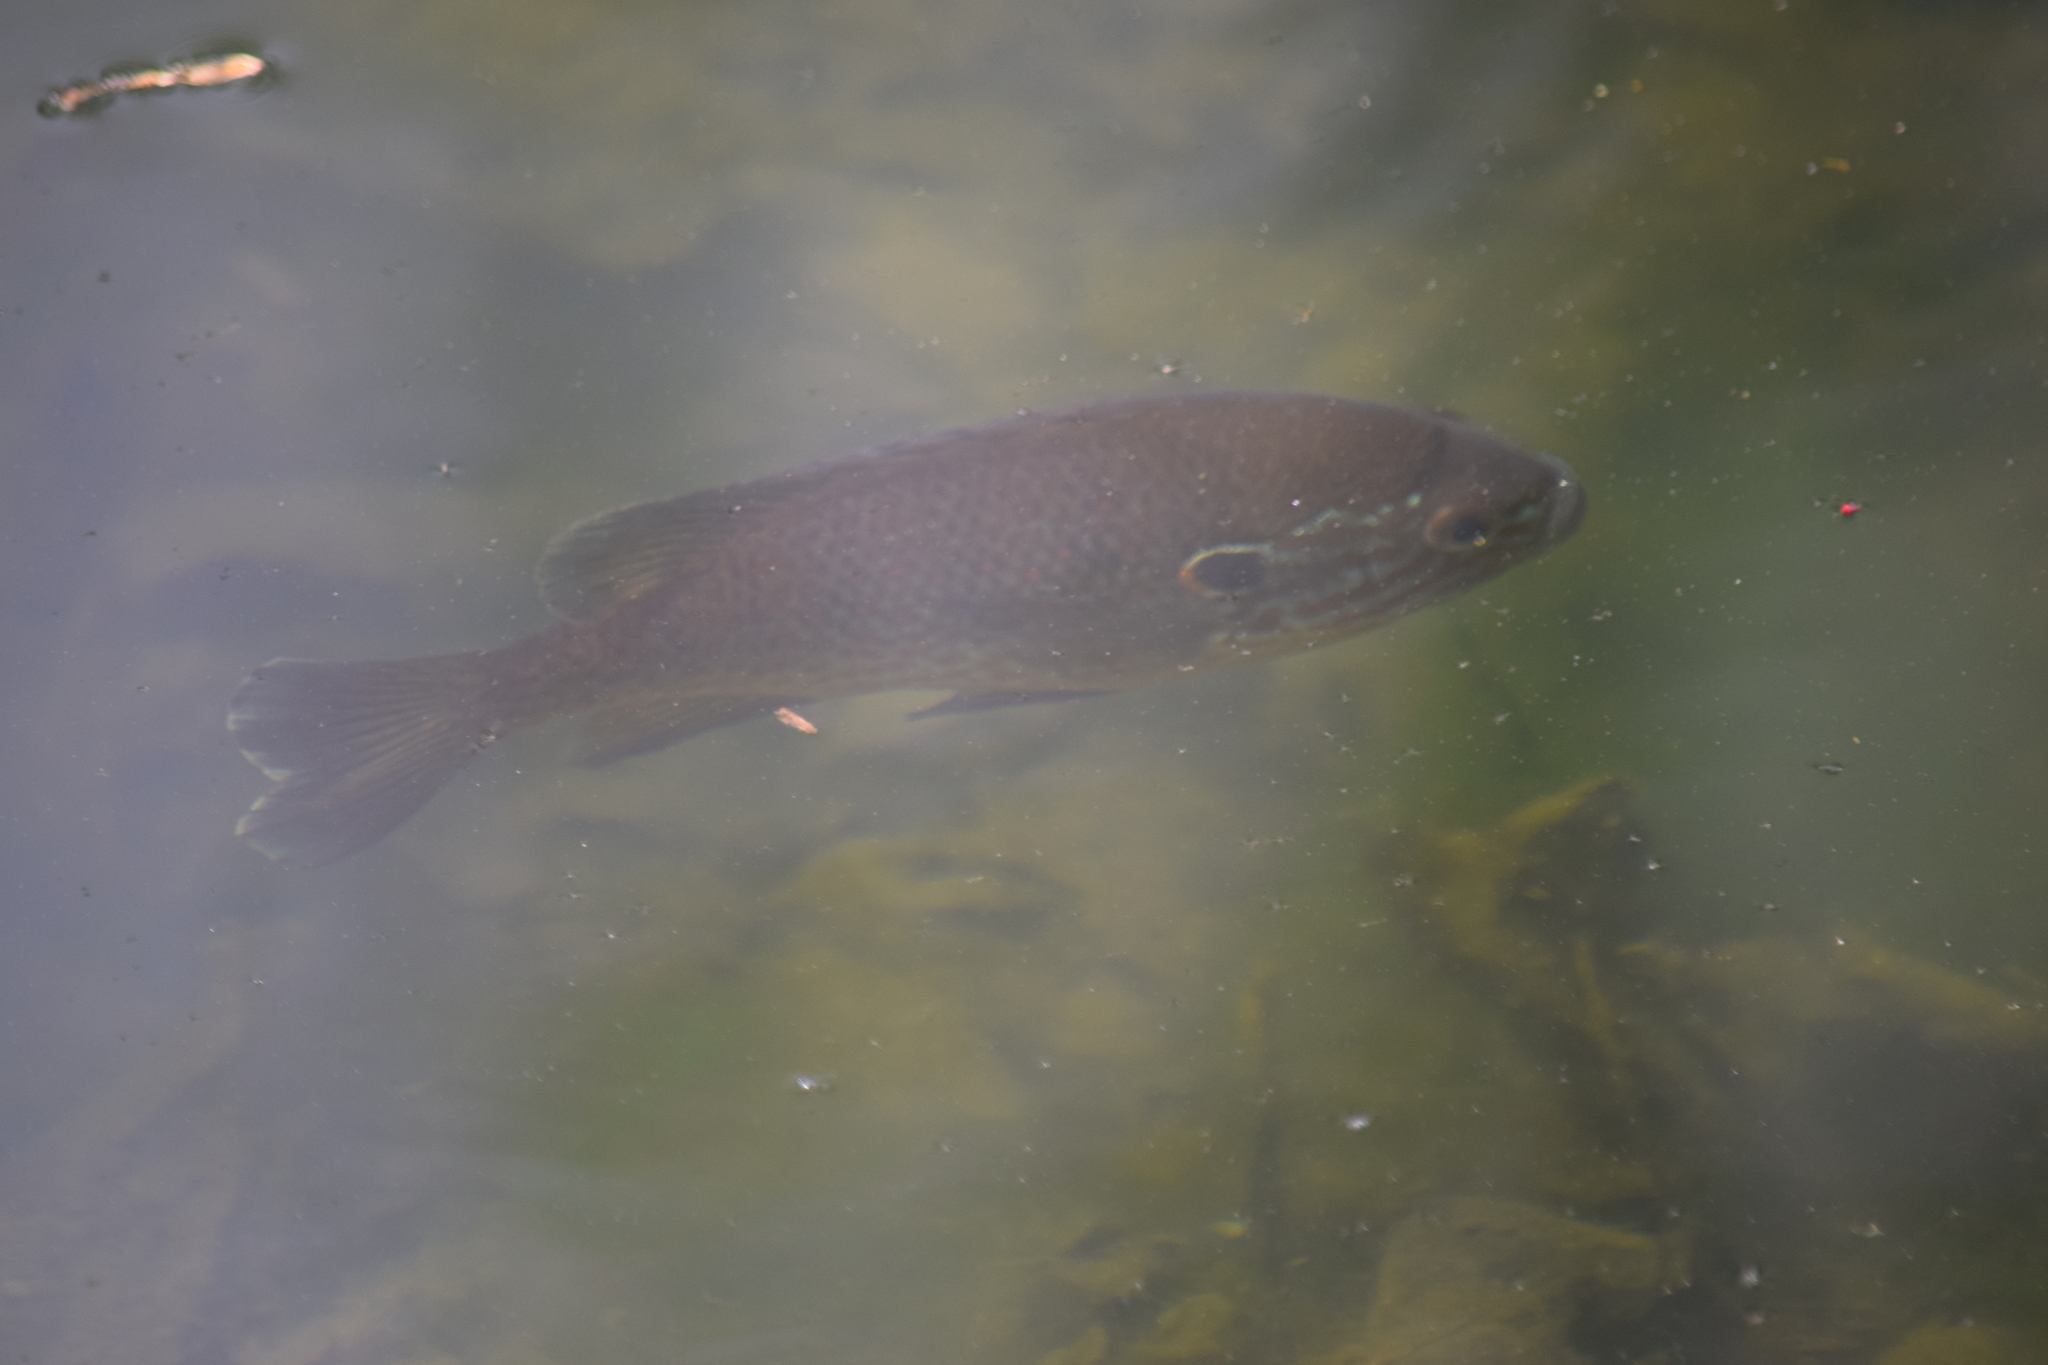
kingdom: Animalia
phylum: Chordata
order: Perciformes
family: Centrarchidae
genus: Lepomis
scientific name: Lepomis gibbosus
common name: Pumpkinseed
